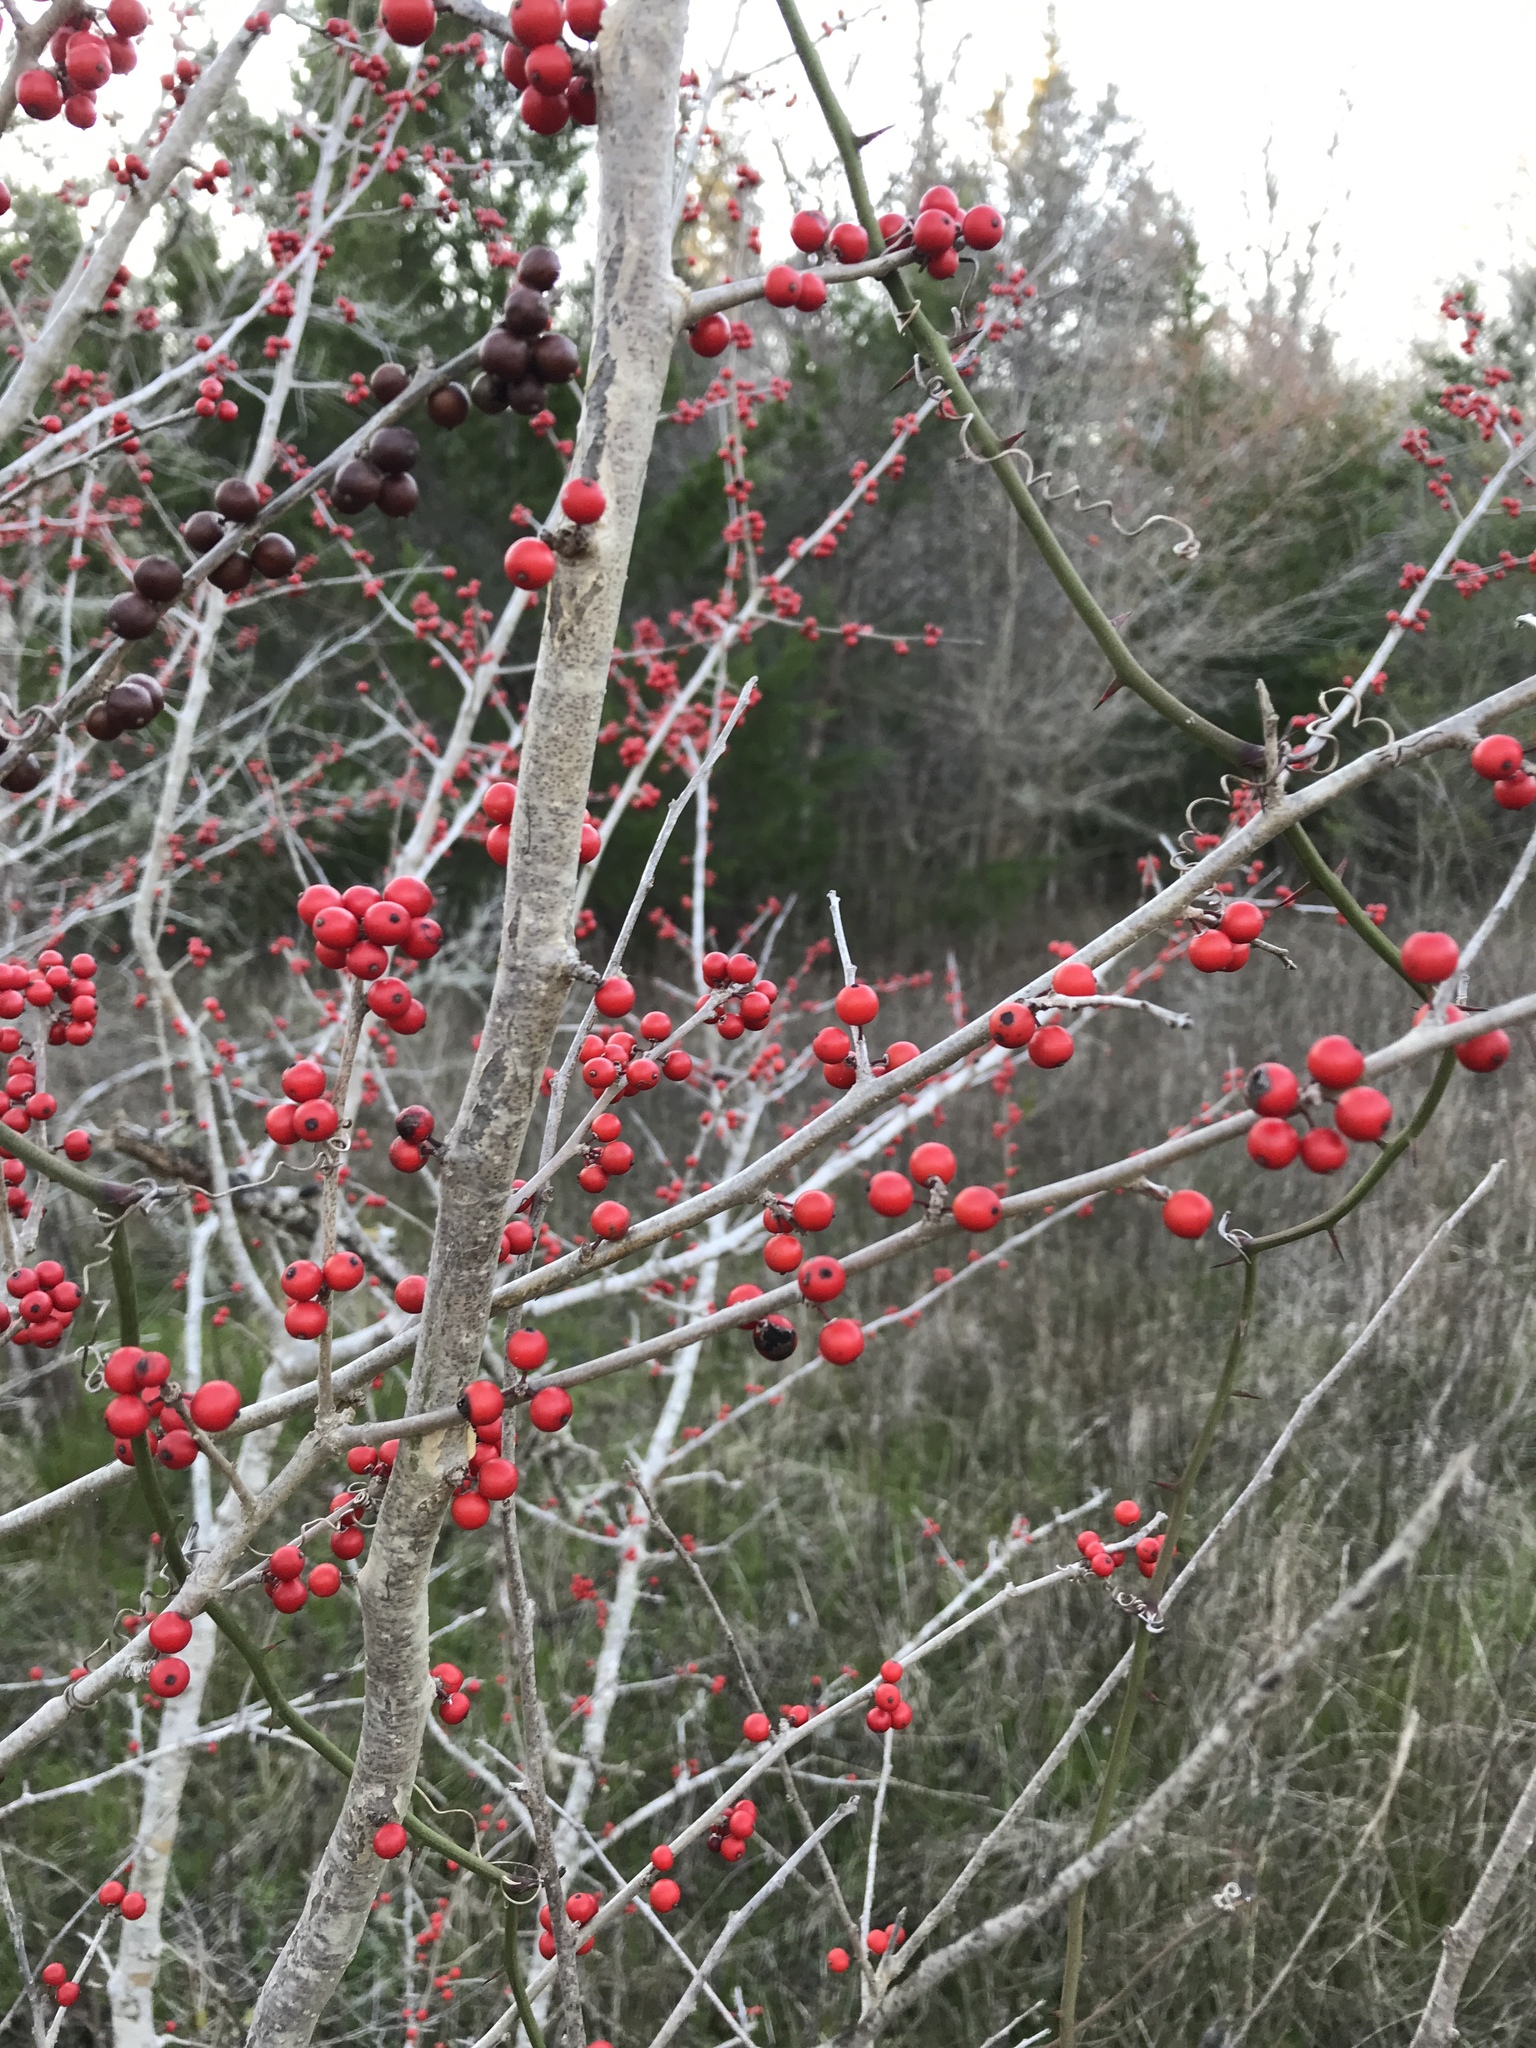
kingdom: Plantae
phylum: Tracheophyta
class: Magnoliopsida
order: Aquifoliales
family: Aquifoliaceae
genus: Ilex
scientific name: Ilex decidua
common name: Possum-haw
